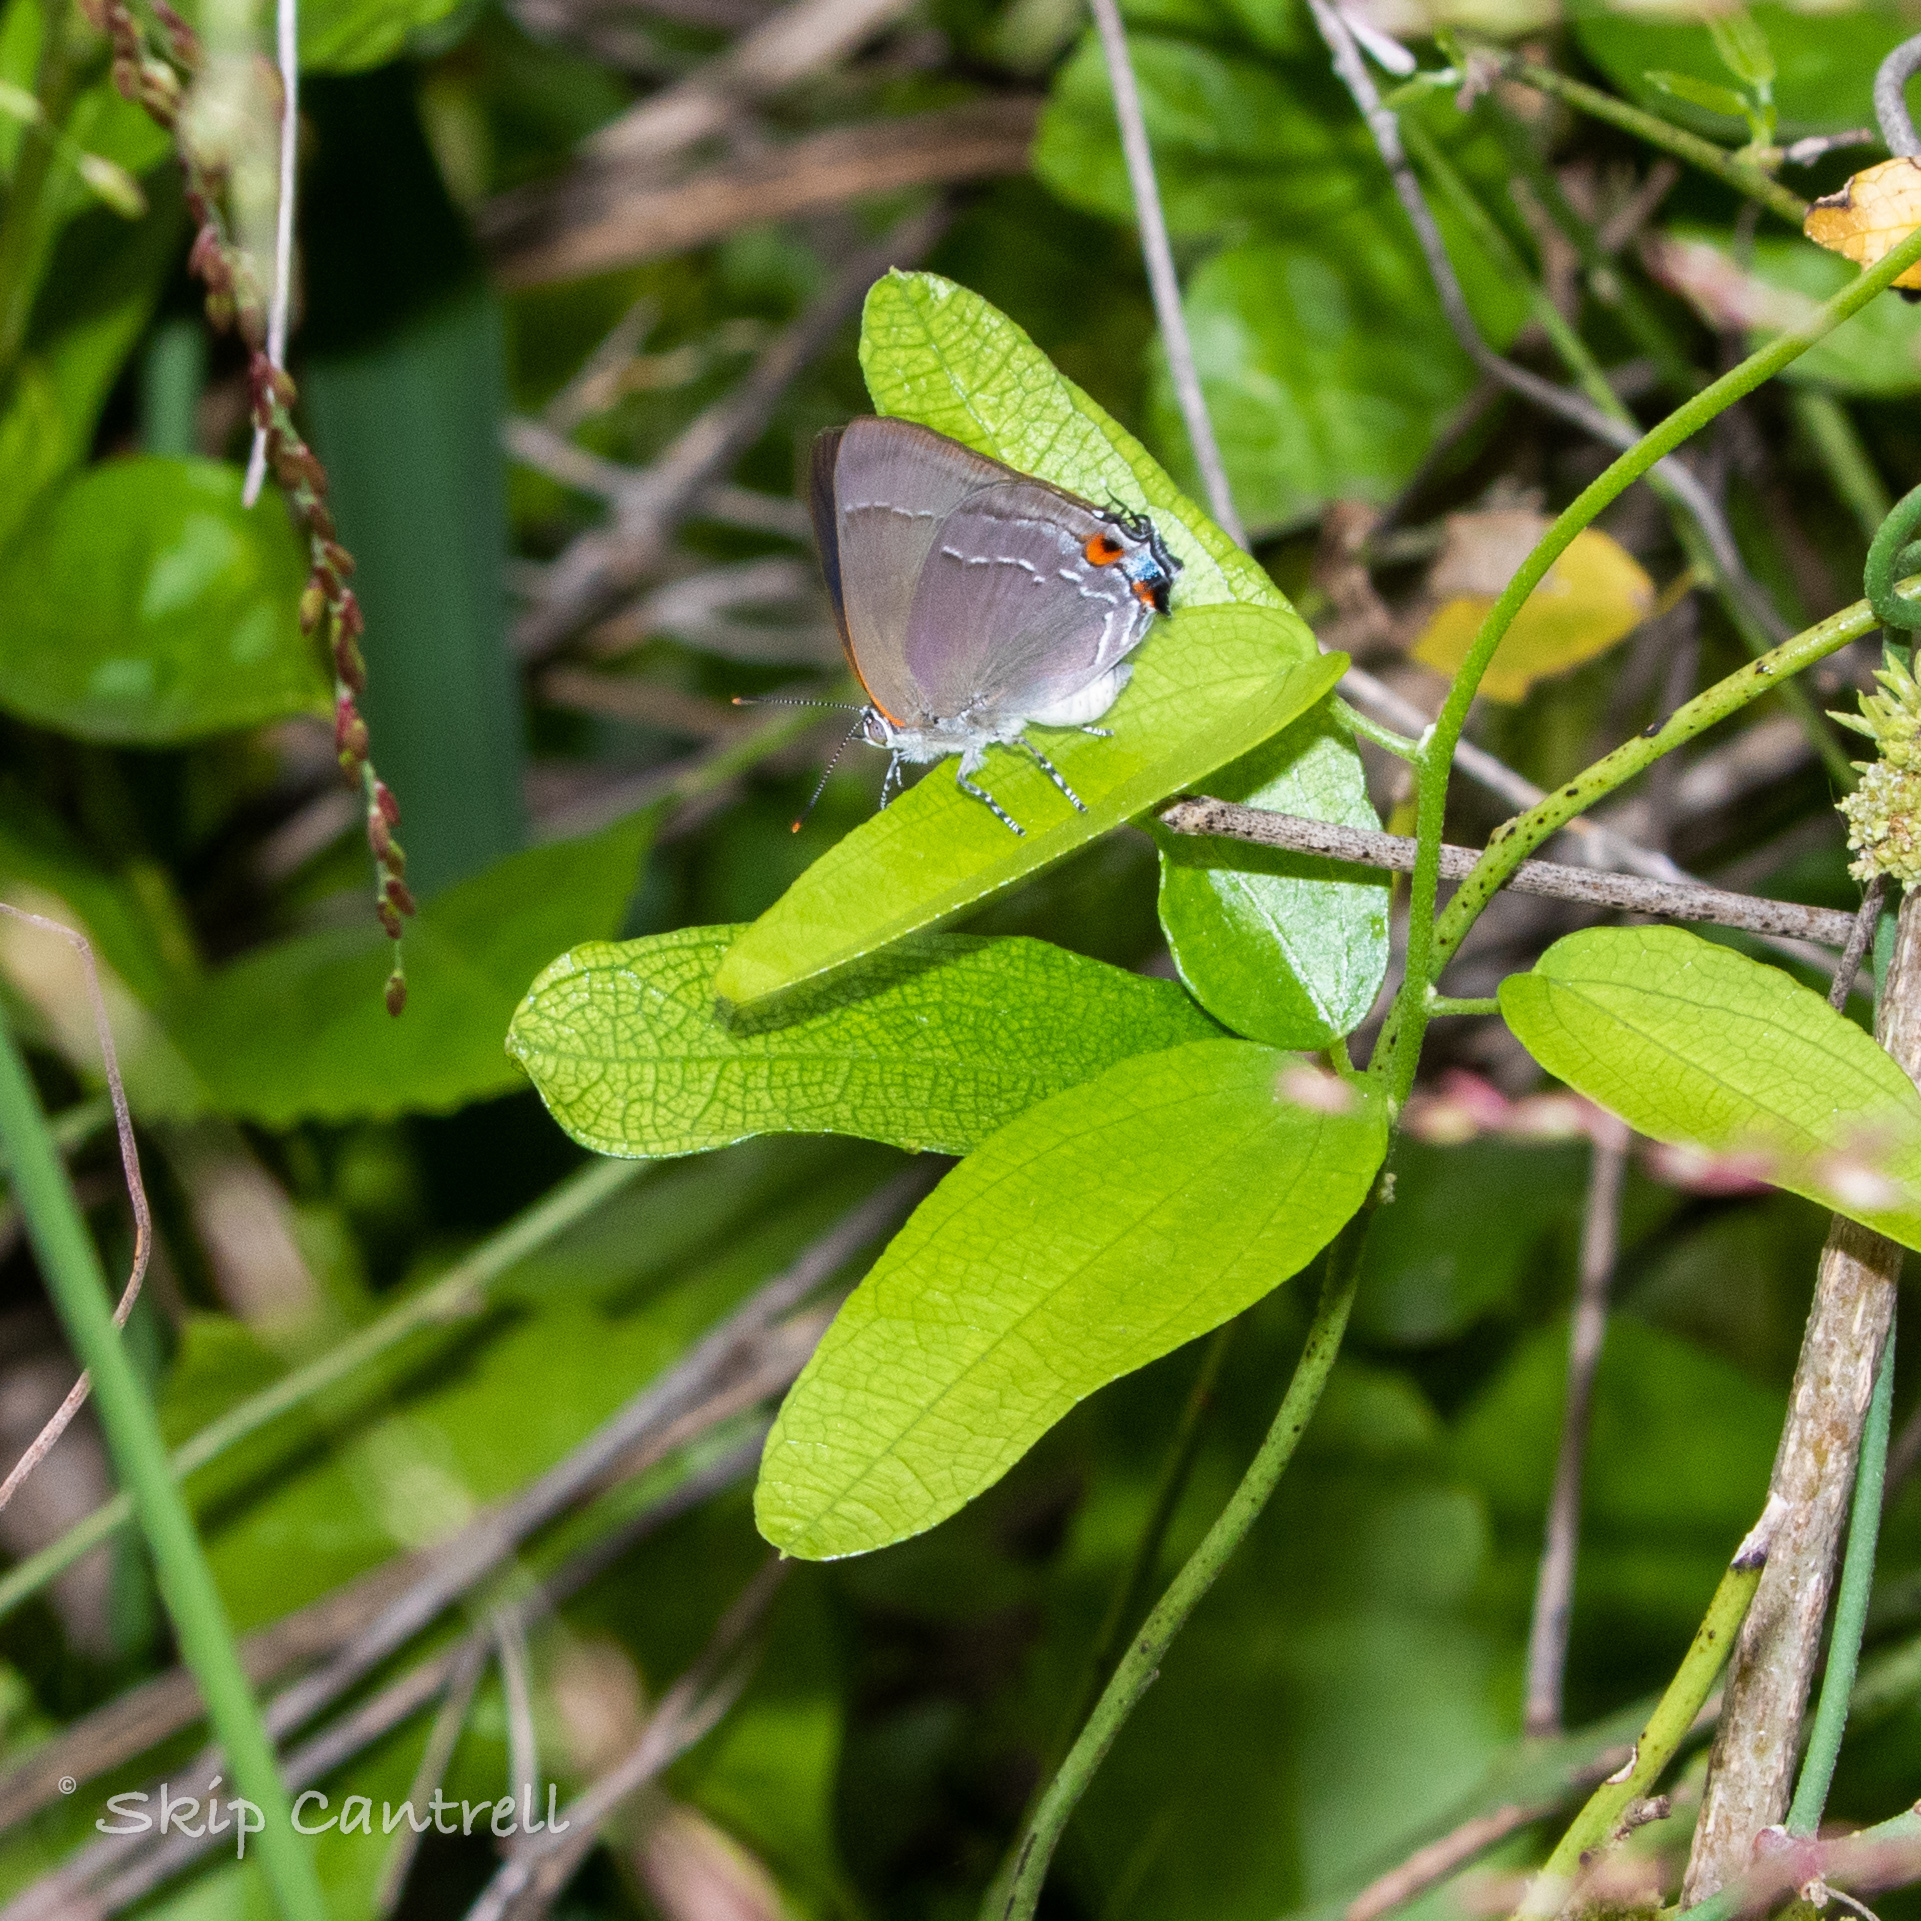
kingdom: Animalia
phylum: Arthropoda
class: Insecta
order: Lepidoptera
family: Lycaenidae
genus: Thecla
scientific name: Thecla marius
